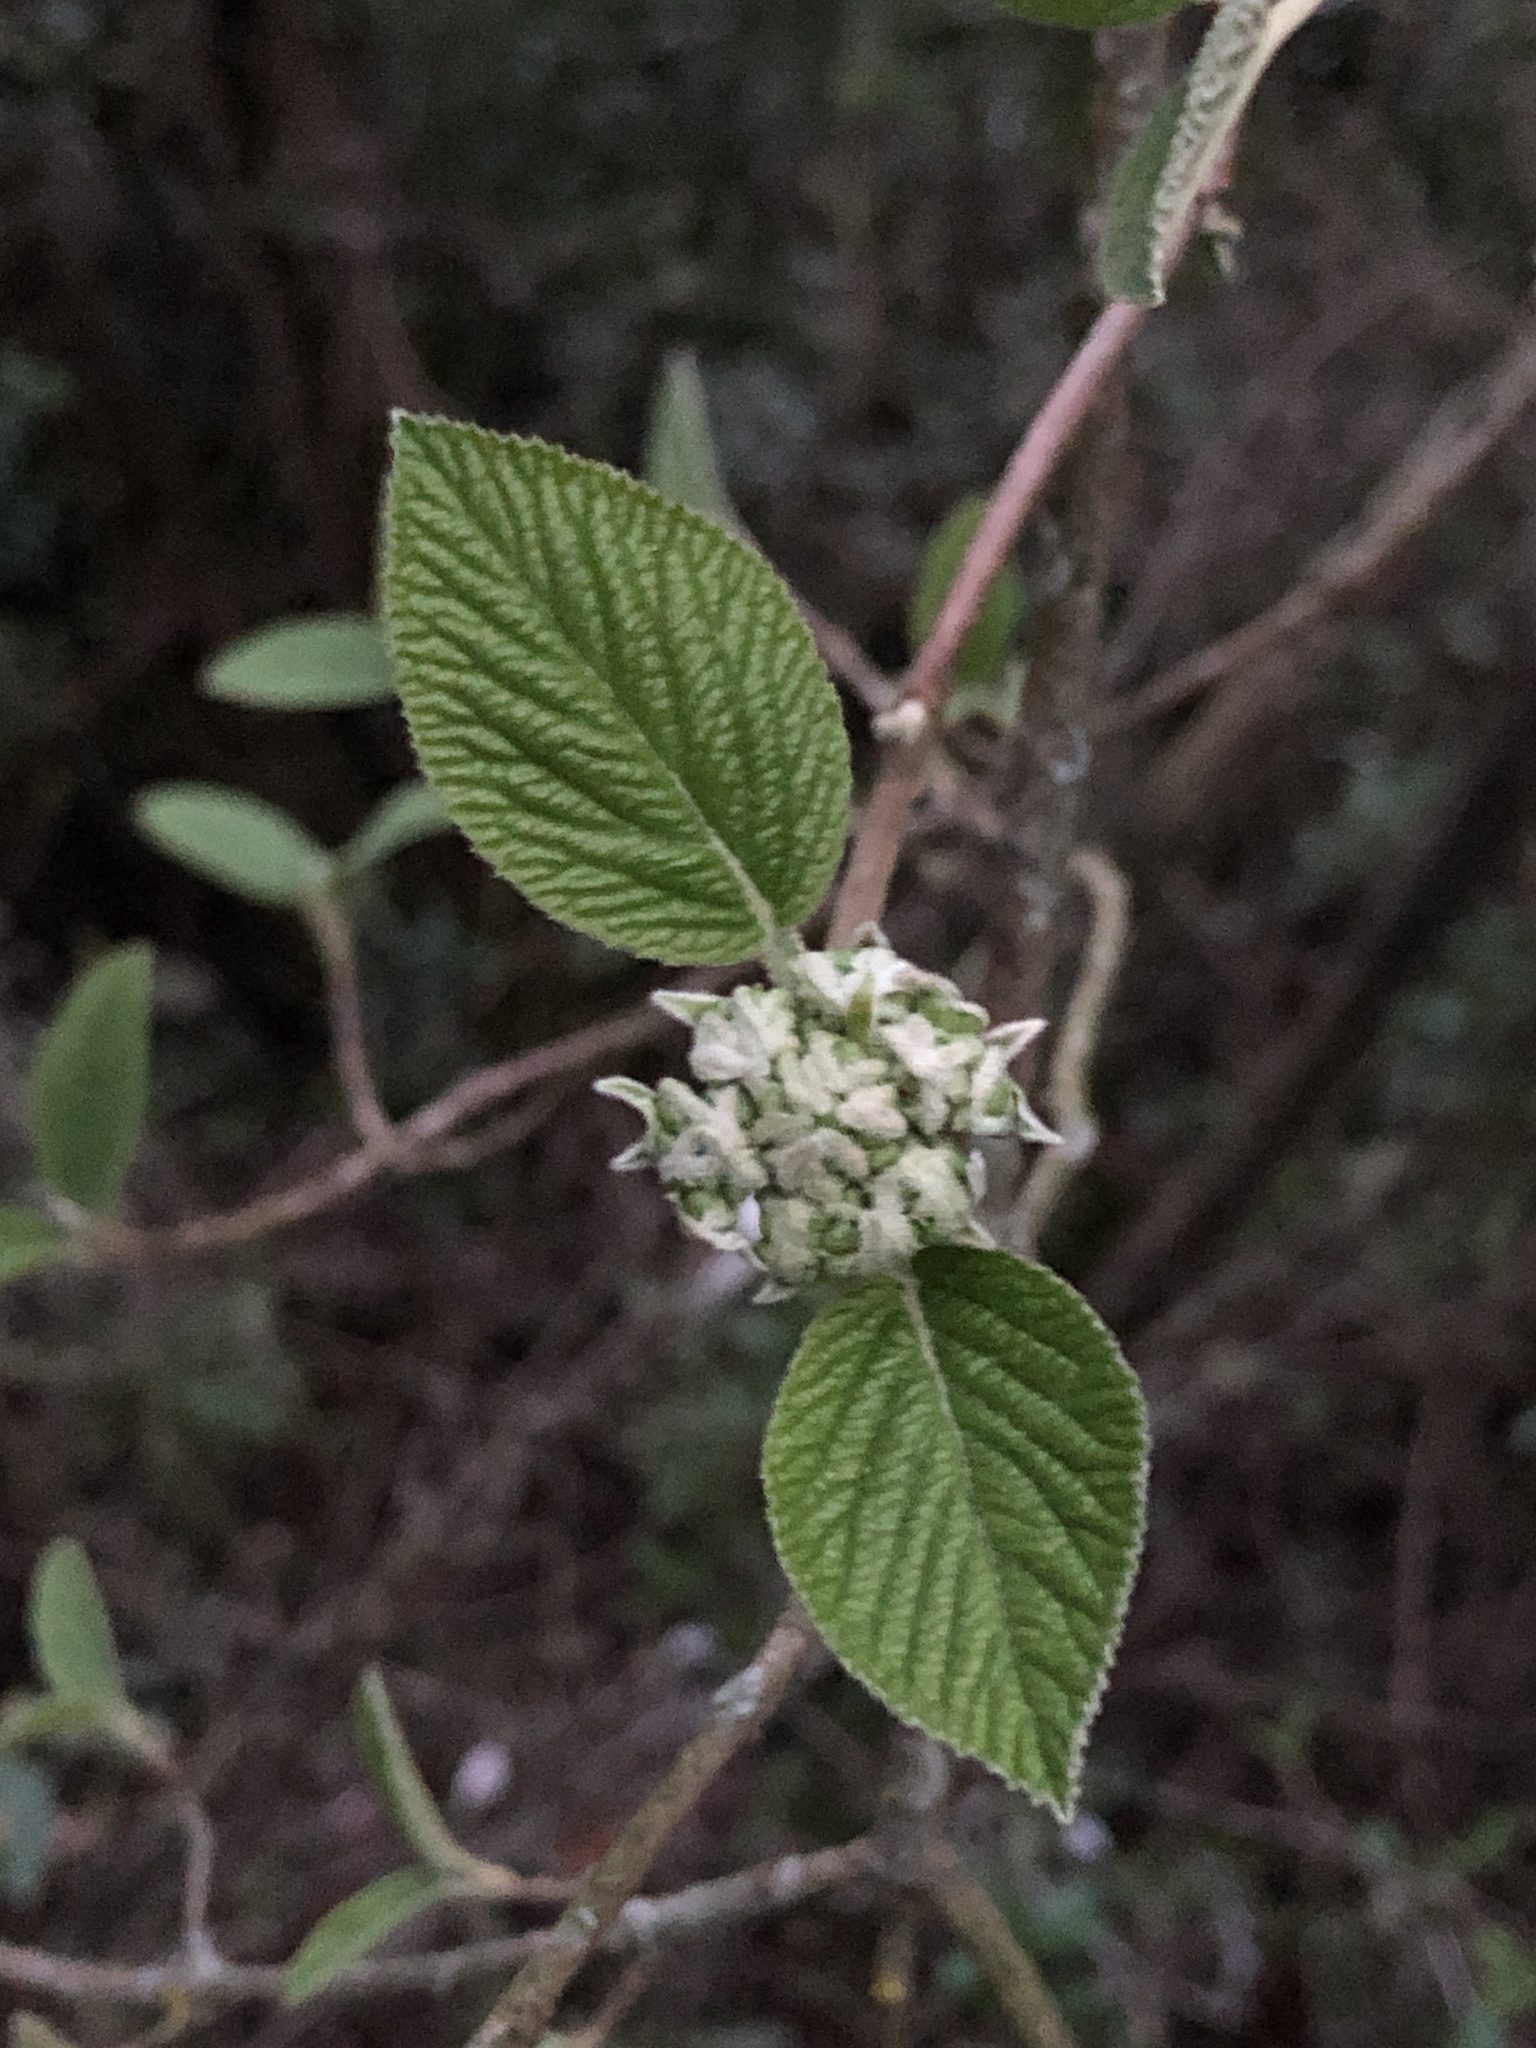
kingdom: Plantae
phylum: Tracheophyta
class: Magnoliopsida
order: Dipsacales
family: Viburnaceae
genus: Viburnum
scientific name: Viburnum lantana
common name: Wayfaring tree
